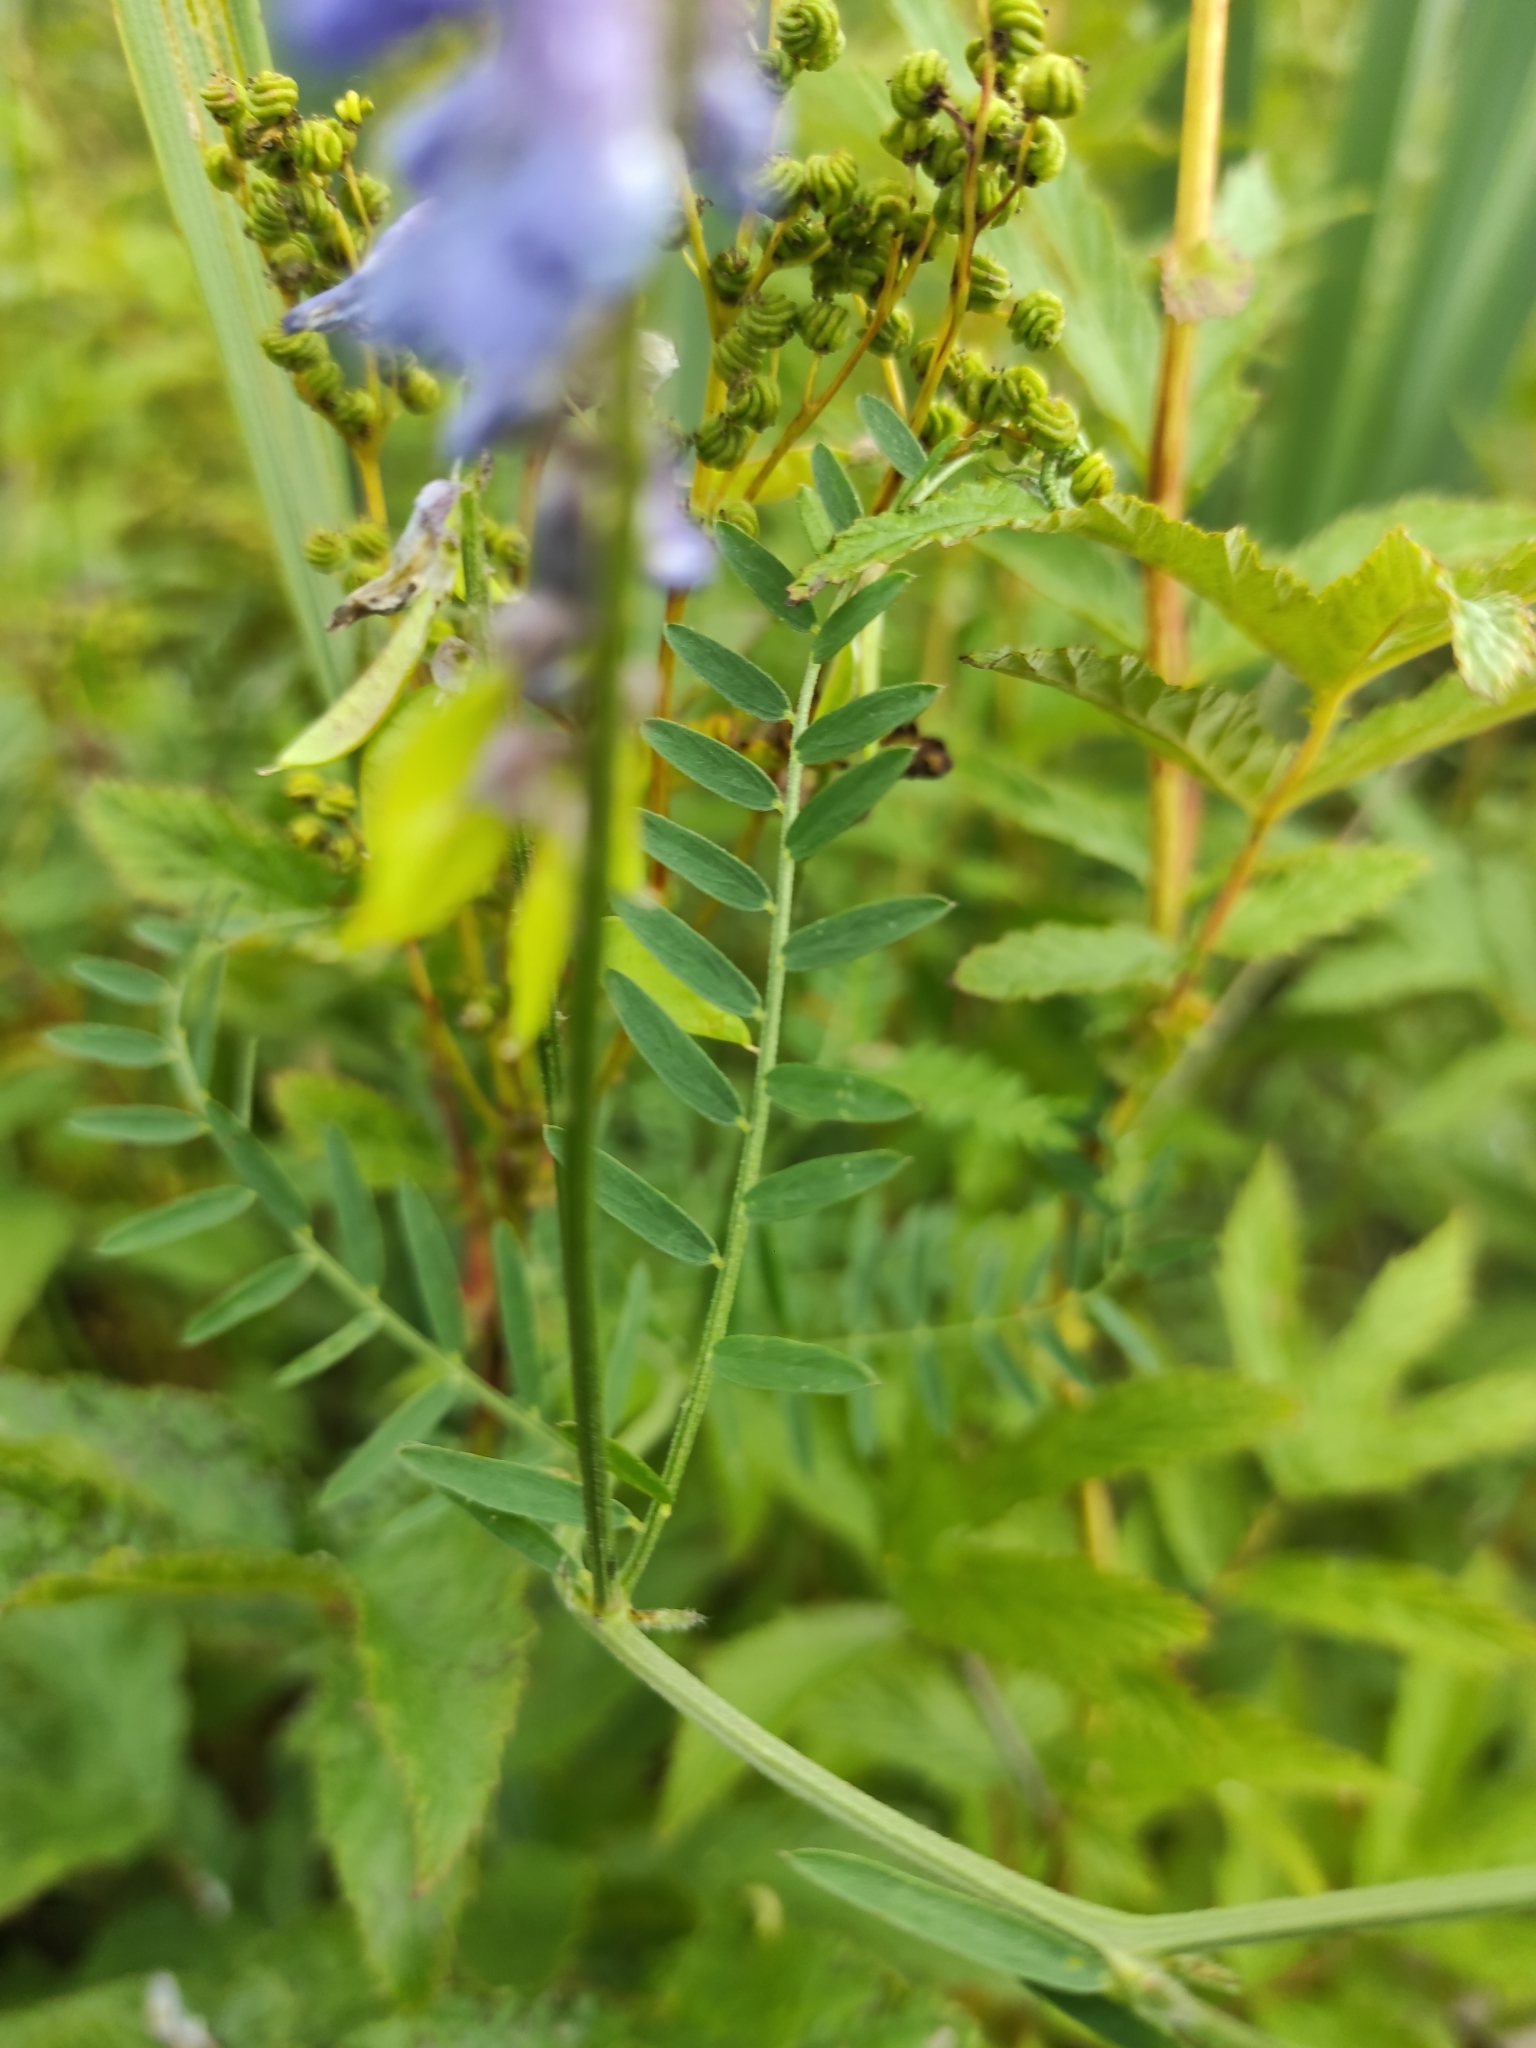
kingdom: Plantae
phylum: Tracheophyta
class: Magnoliopsida
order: Fabales
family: Fabaceae
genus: Vicia
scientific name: Vicia cracca
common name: Bird vetch
